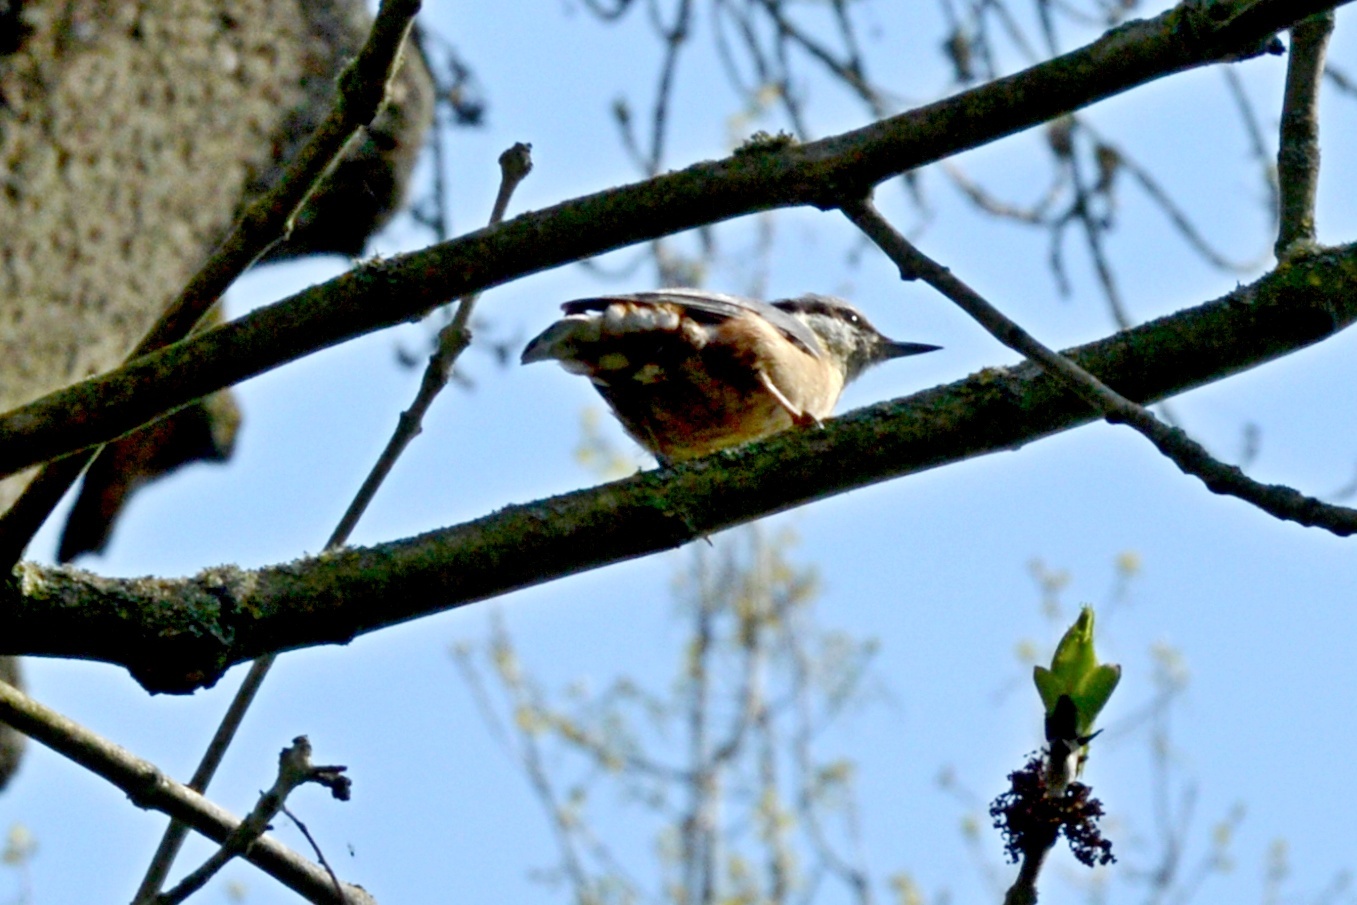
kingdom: Animalia
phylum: Chordata
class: Aves
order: Passeriformes
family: Sittidae
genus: Sitta
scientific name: Sitta europaea
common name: Eurasian nuthatch
